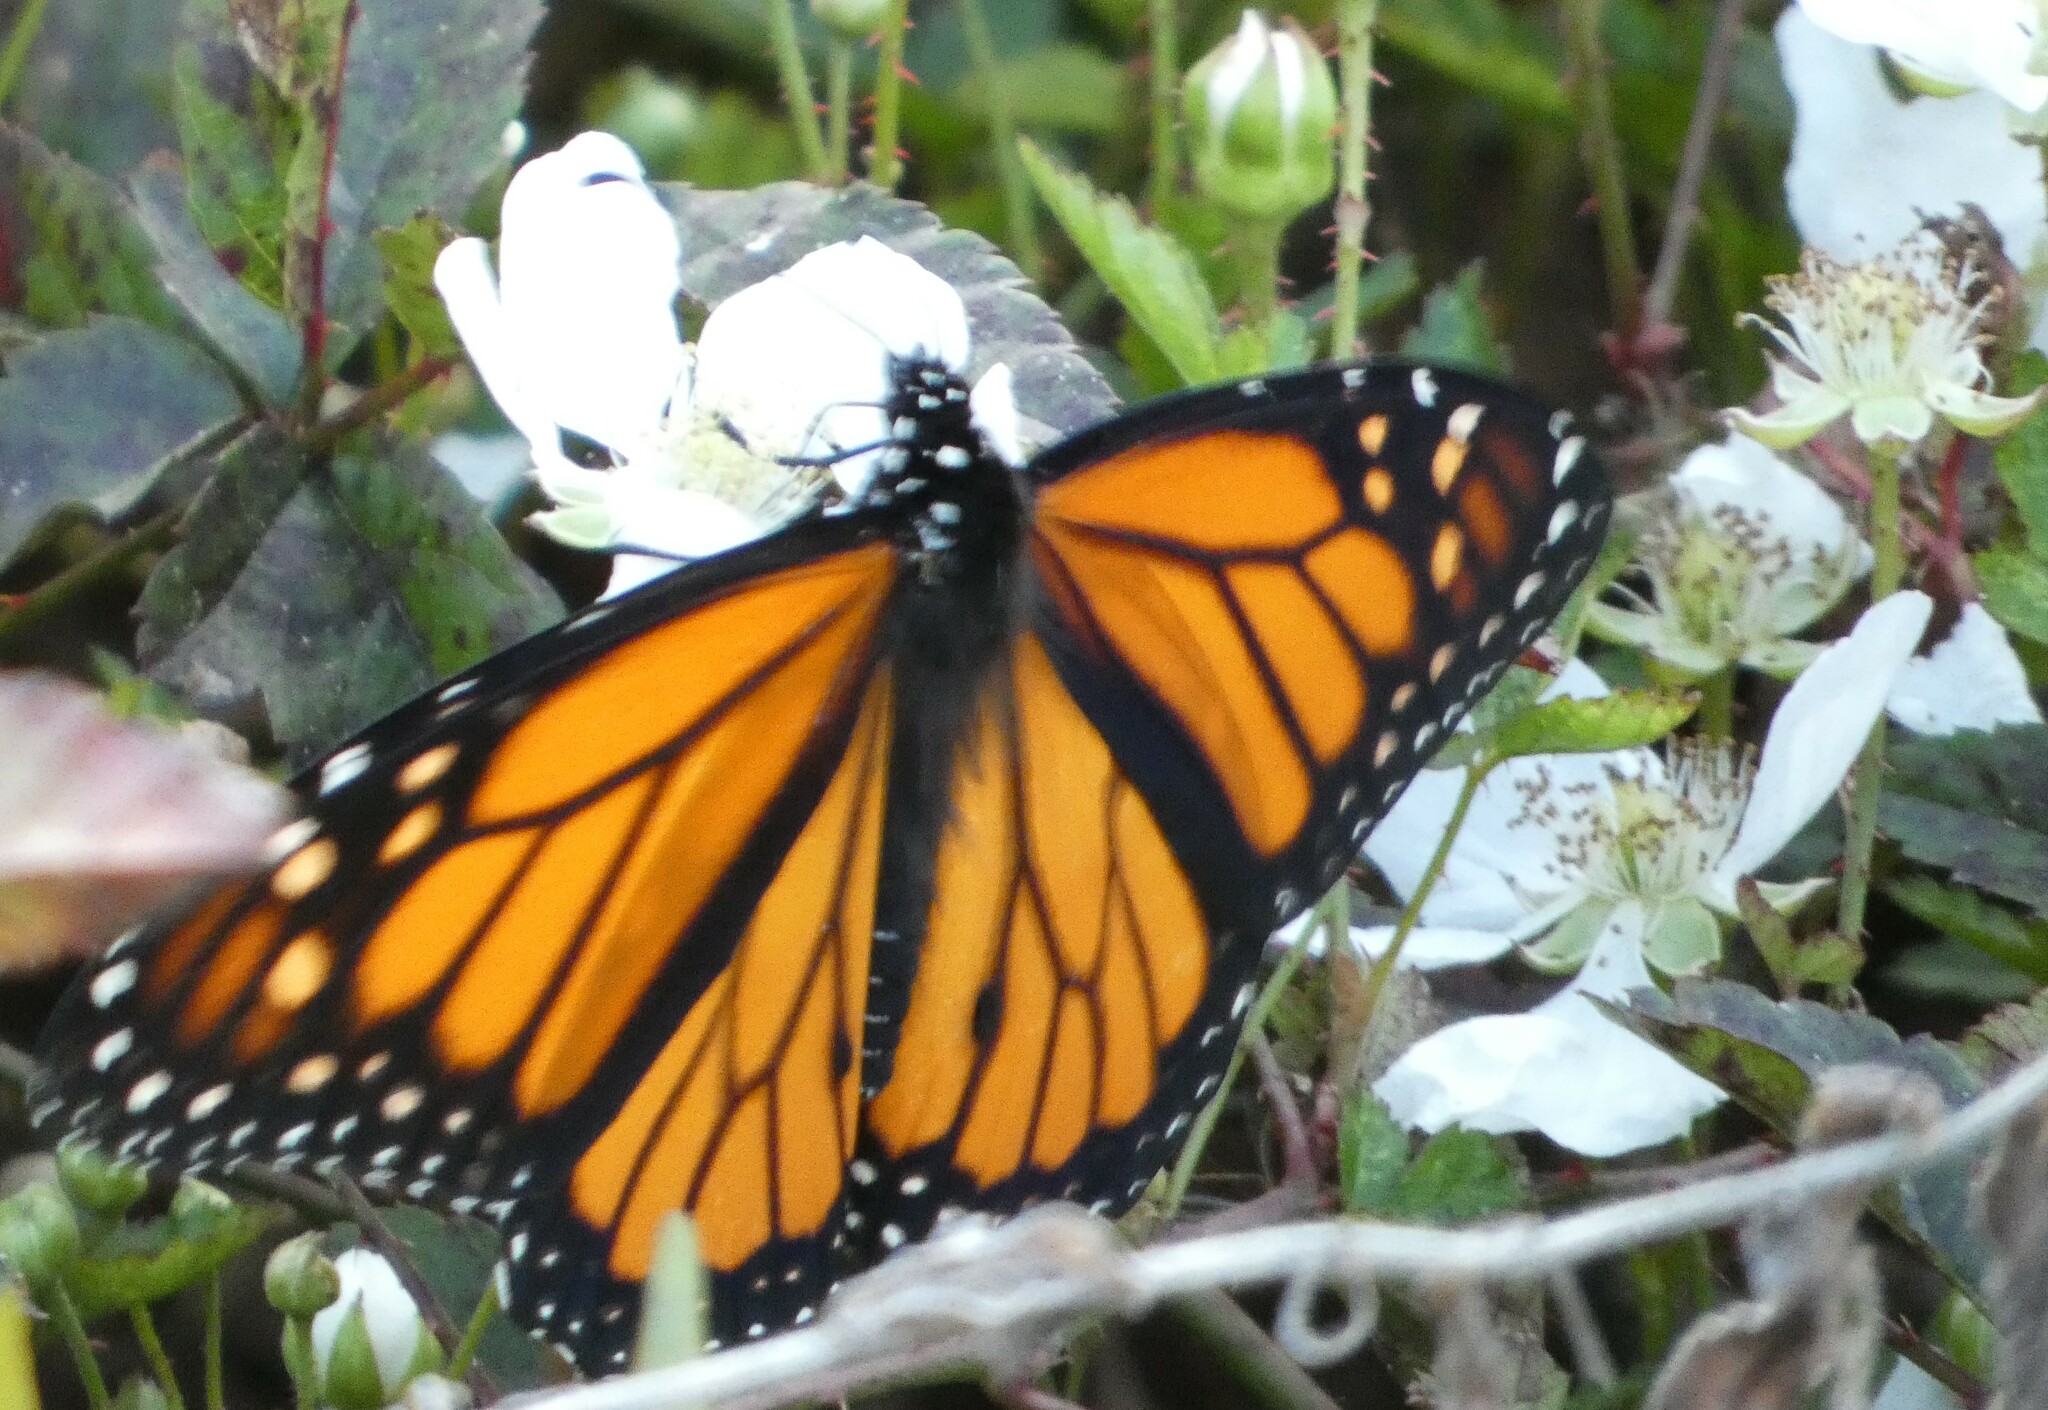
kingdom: Animalia
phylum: Arthropoda
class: Insecta
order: Lepidoptera
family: Nymphalidae
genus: Danaus
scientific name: Danaus plexippus
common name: Monarch
